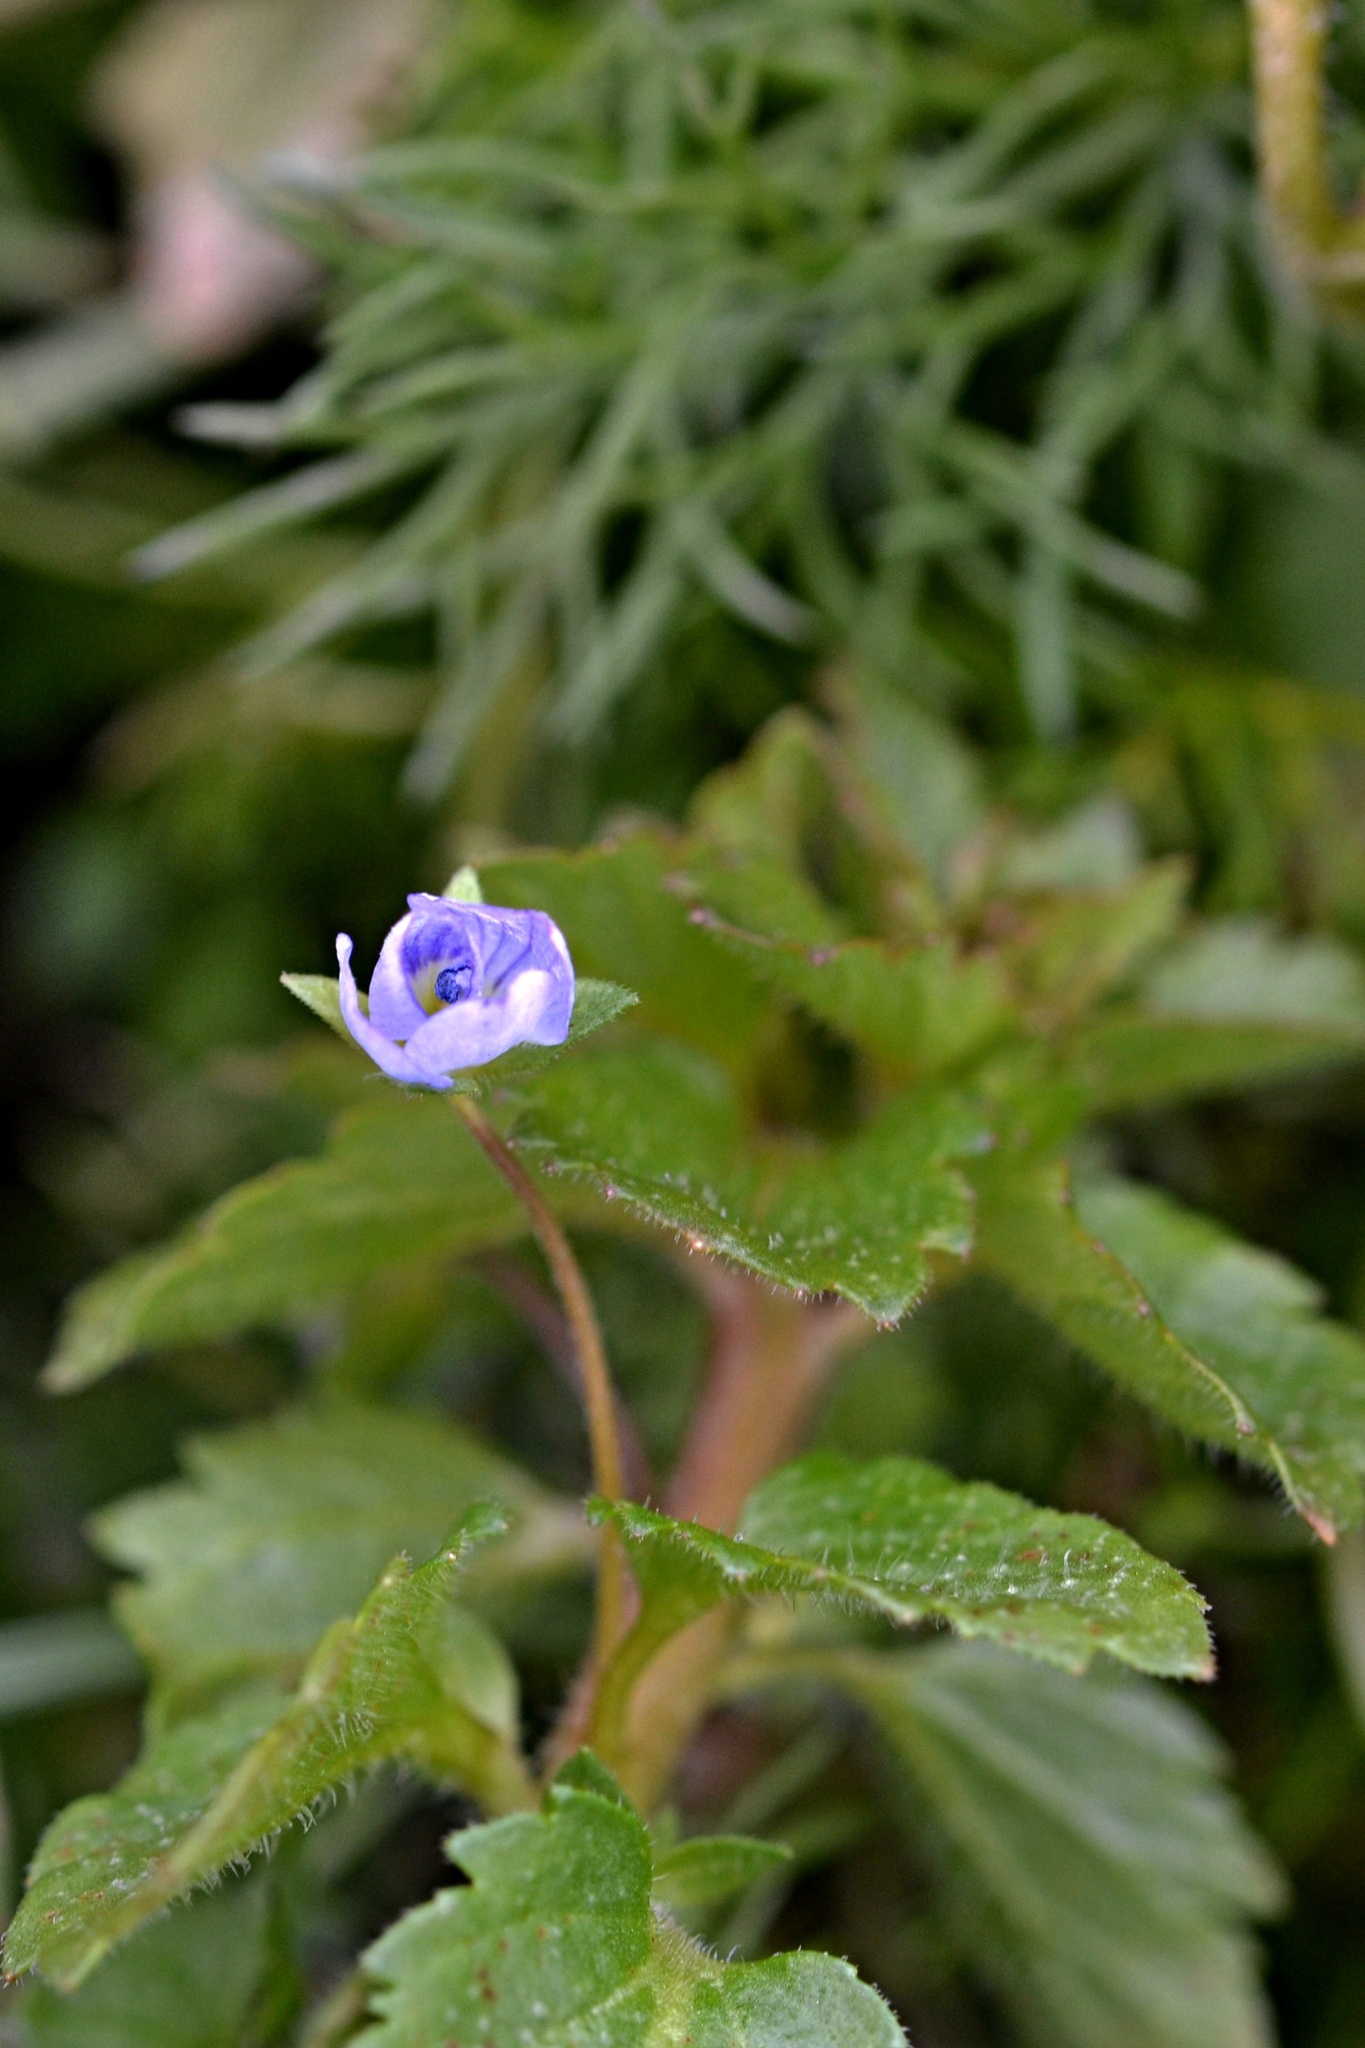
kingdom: Plantae
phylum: Tracheophyta
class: Magnoliopsida
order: Lamiales
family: Plantaginaceae
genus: Veronica
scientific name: Veronica persica
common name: Common field-speedwell
